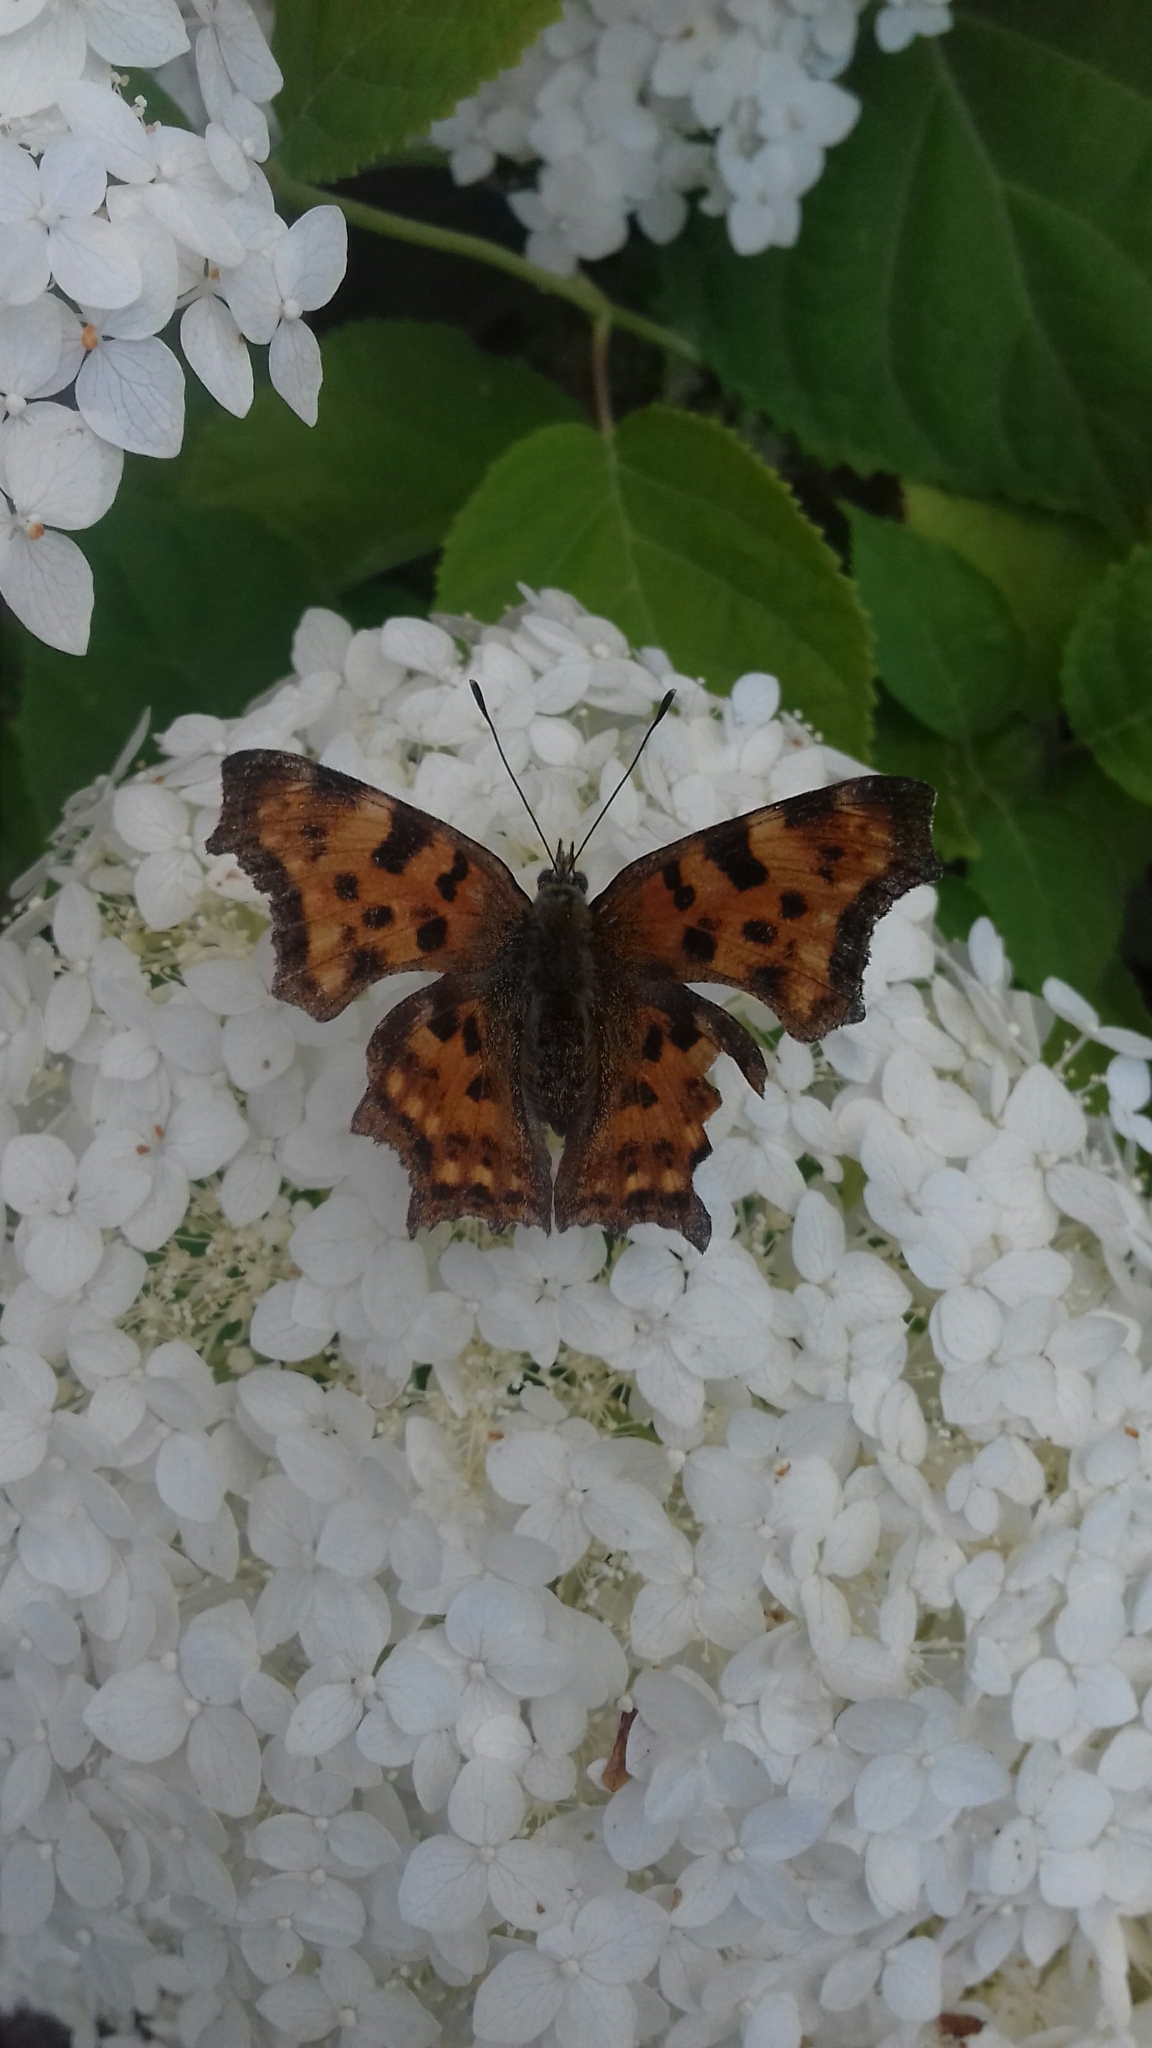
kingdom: Animalia
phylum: Arthropoda
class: Insecta
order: Lepidoptera
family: Nymphalidae
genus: Polygonia
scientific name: Polygonia c-album
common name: Comma
